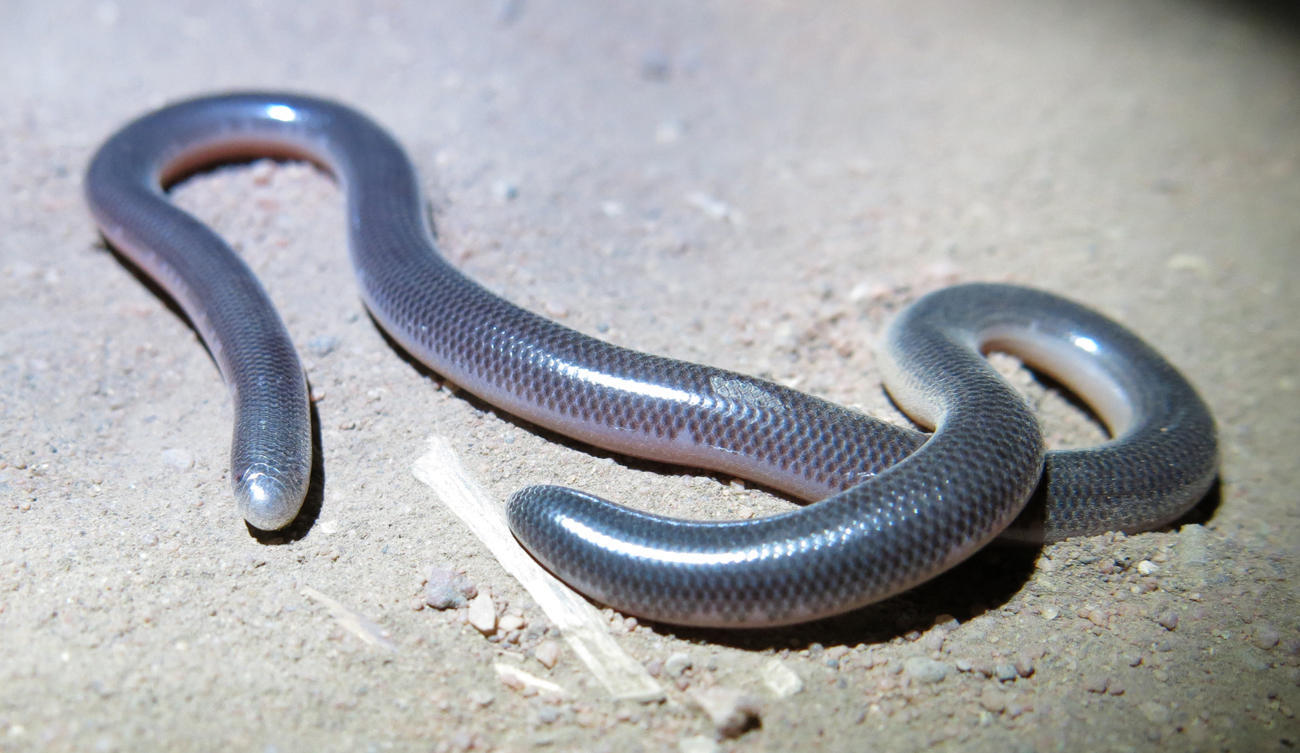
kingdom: Animalia
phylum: Chordata
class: Squamata
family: Typhlopidae
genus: Rhinotyphlops
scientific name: Rhinotyphlops lalandei
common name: Delalande's beaked blind snake
